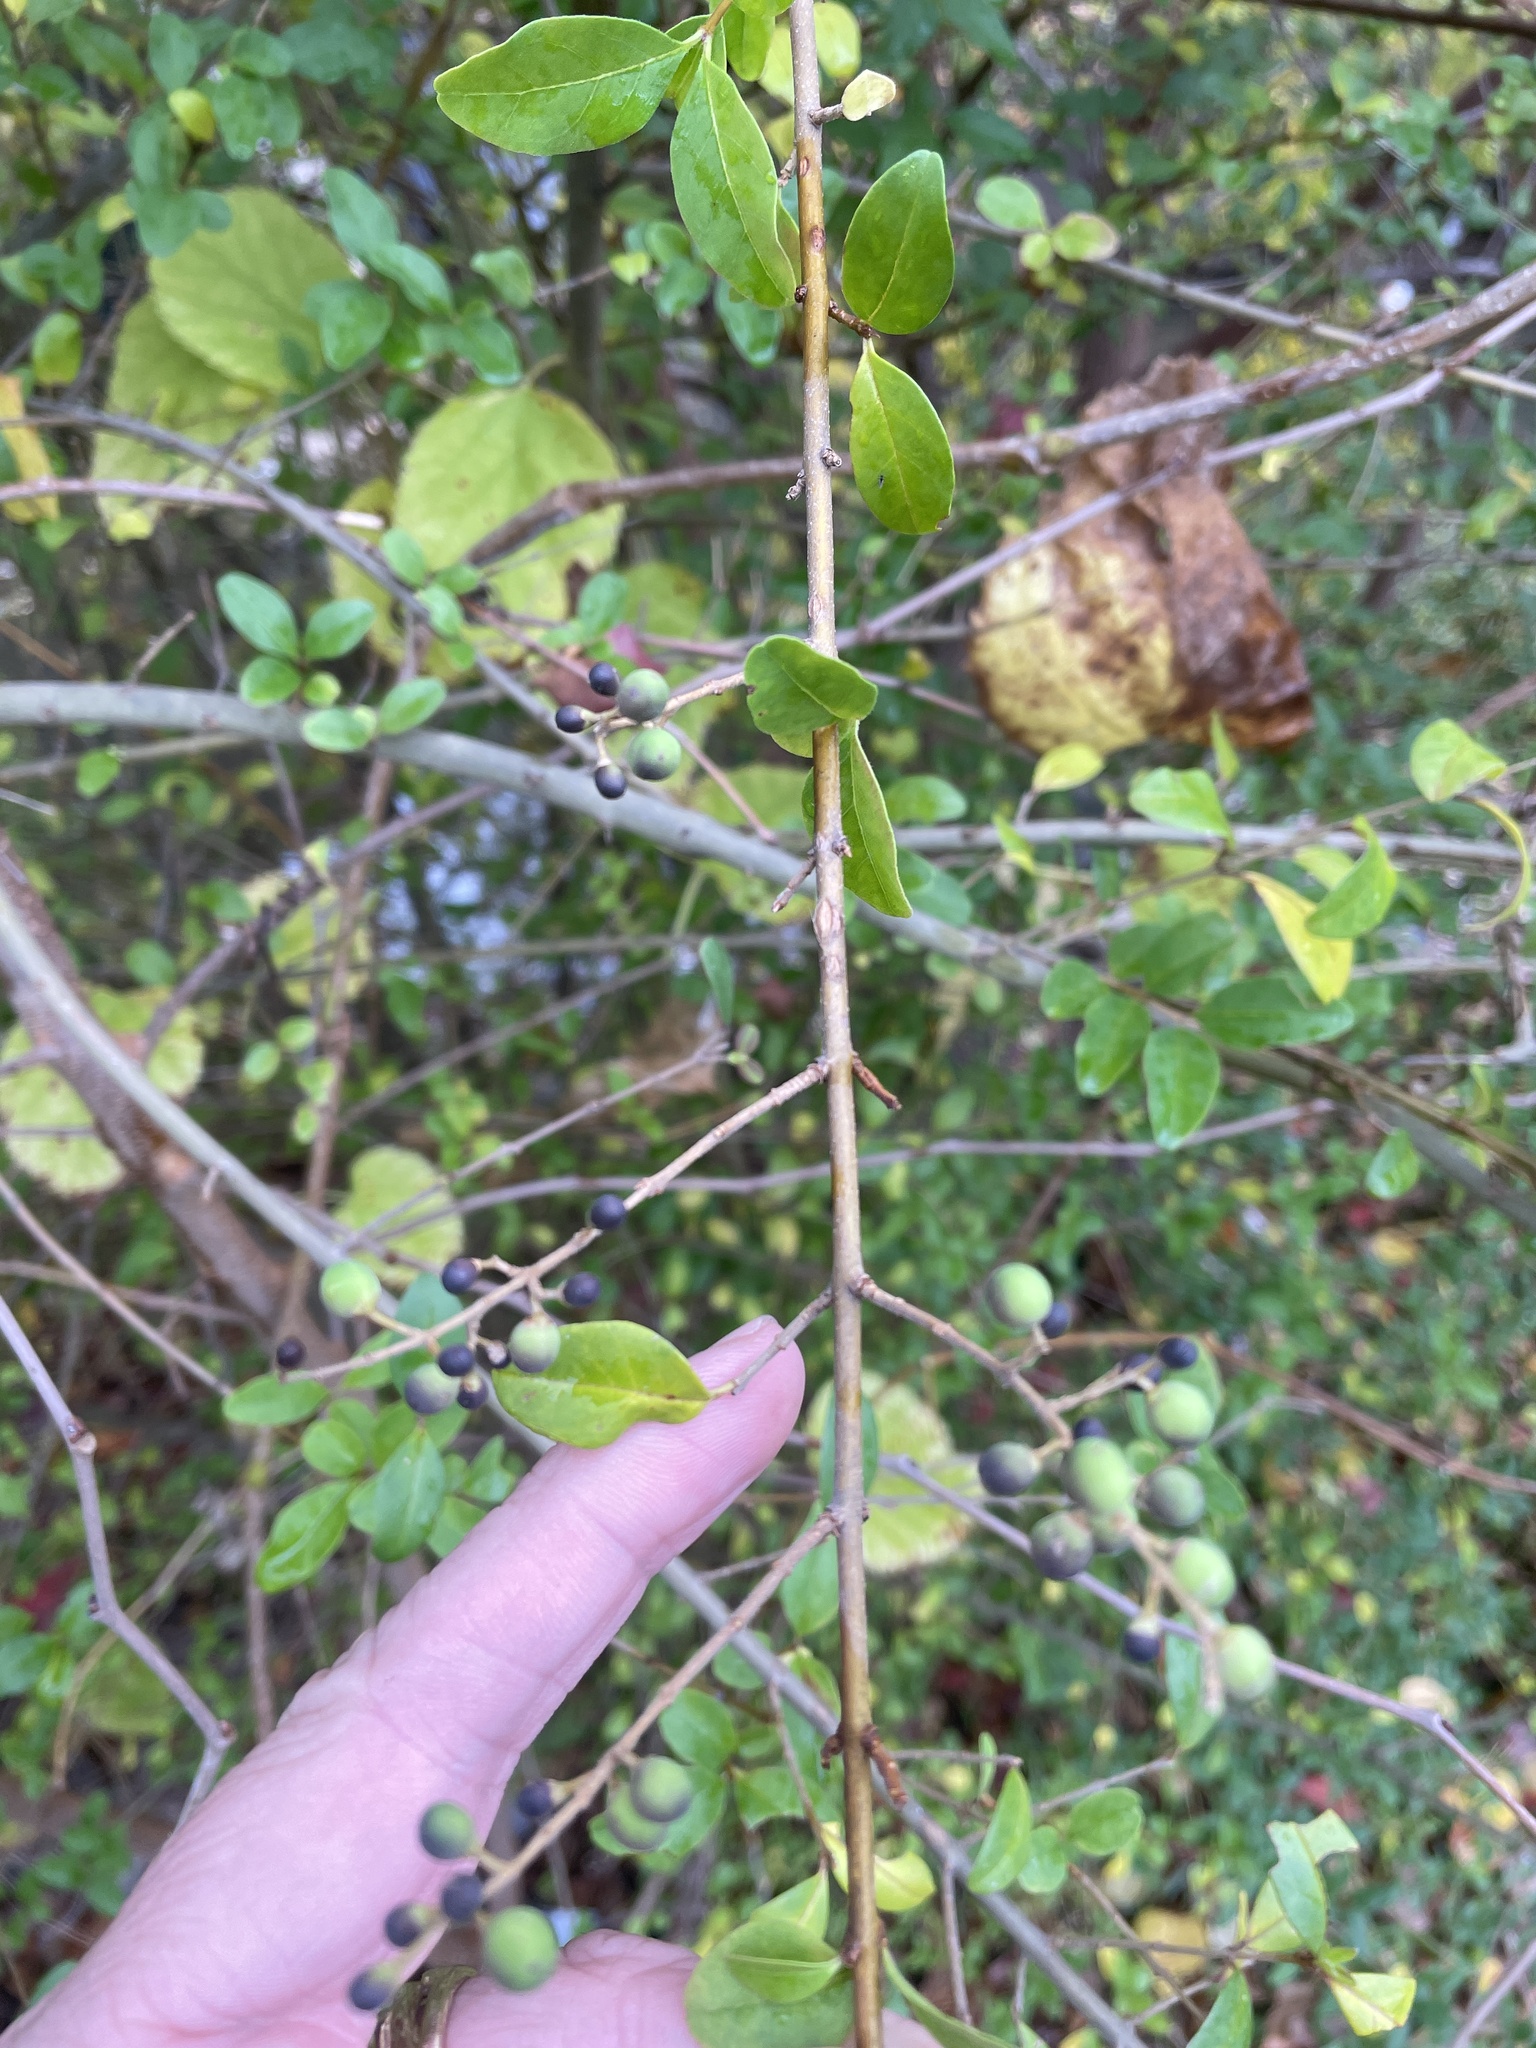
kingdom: Plantae
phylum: Tracheophyta
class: Magnoliopsida
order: Lamiales
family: Oleaceae
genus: Ligustrum
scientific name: Ligustrum sinense
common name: Chinese privet
